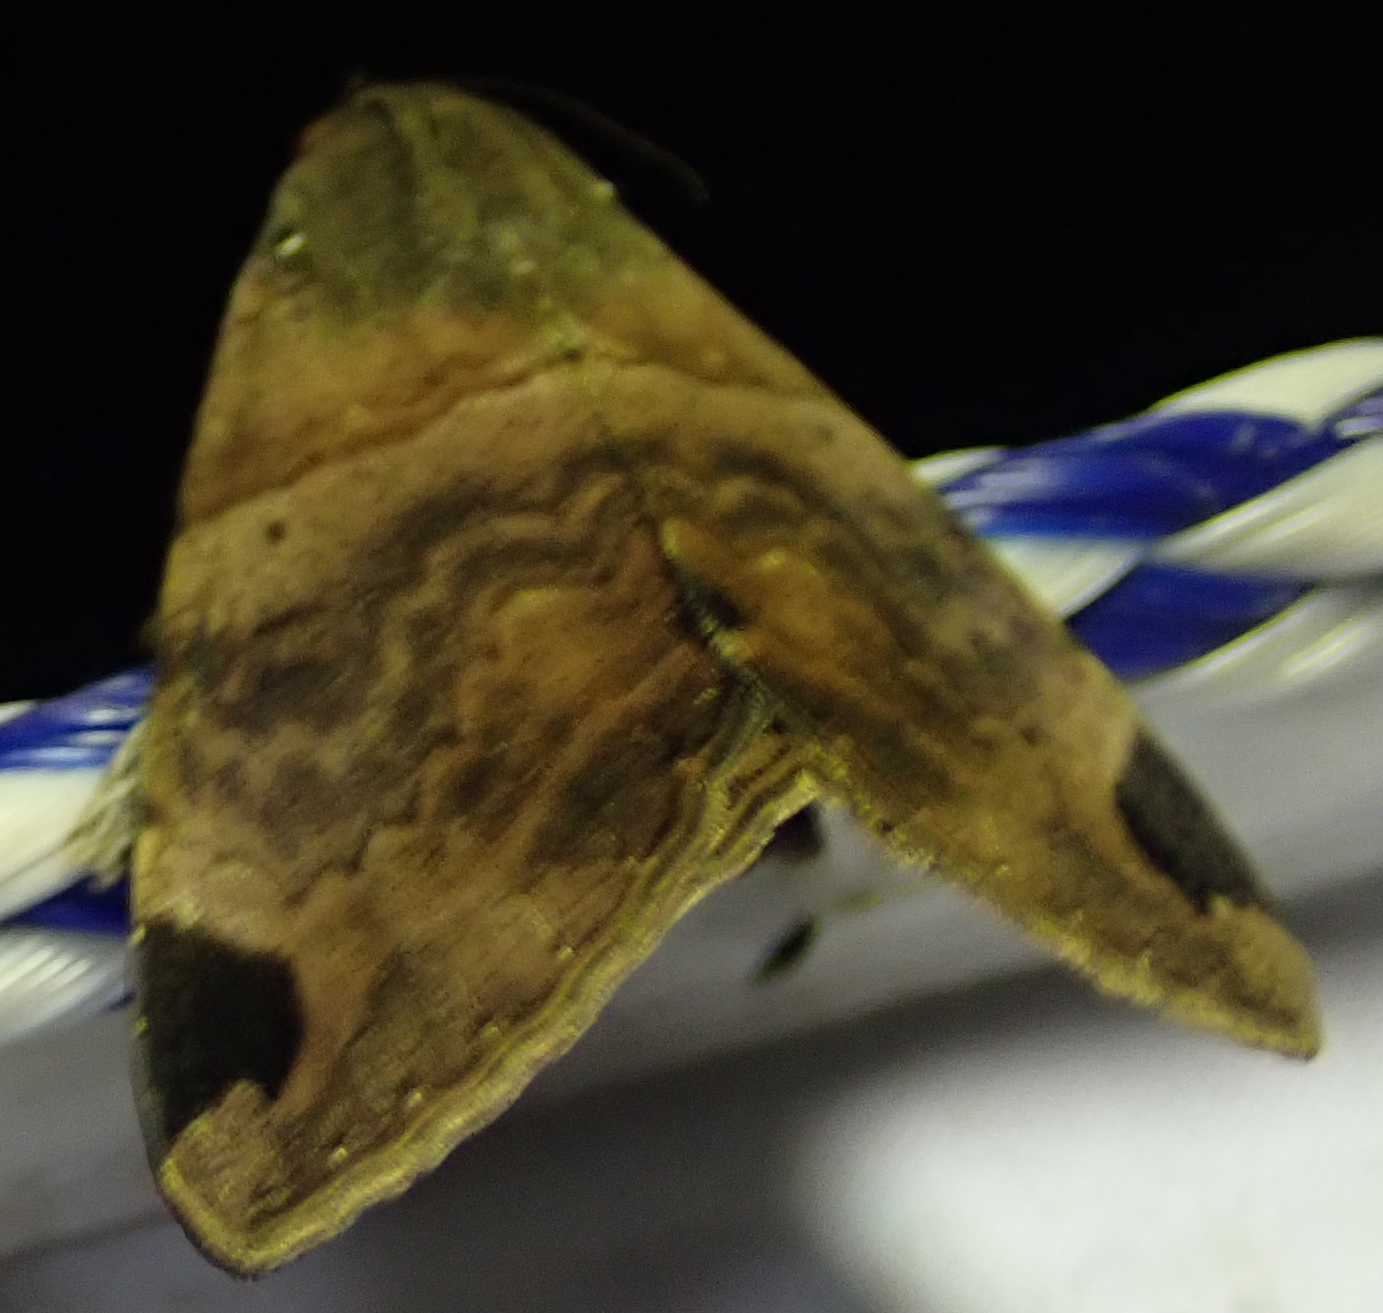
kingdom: Animalia
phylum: Arthropoda
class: Insecta
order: Lepidoptera
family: Erebidae
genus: Achaea
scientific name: Achaea lienardi
